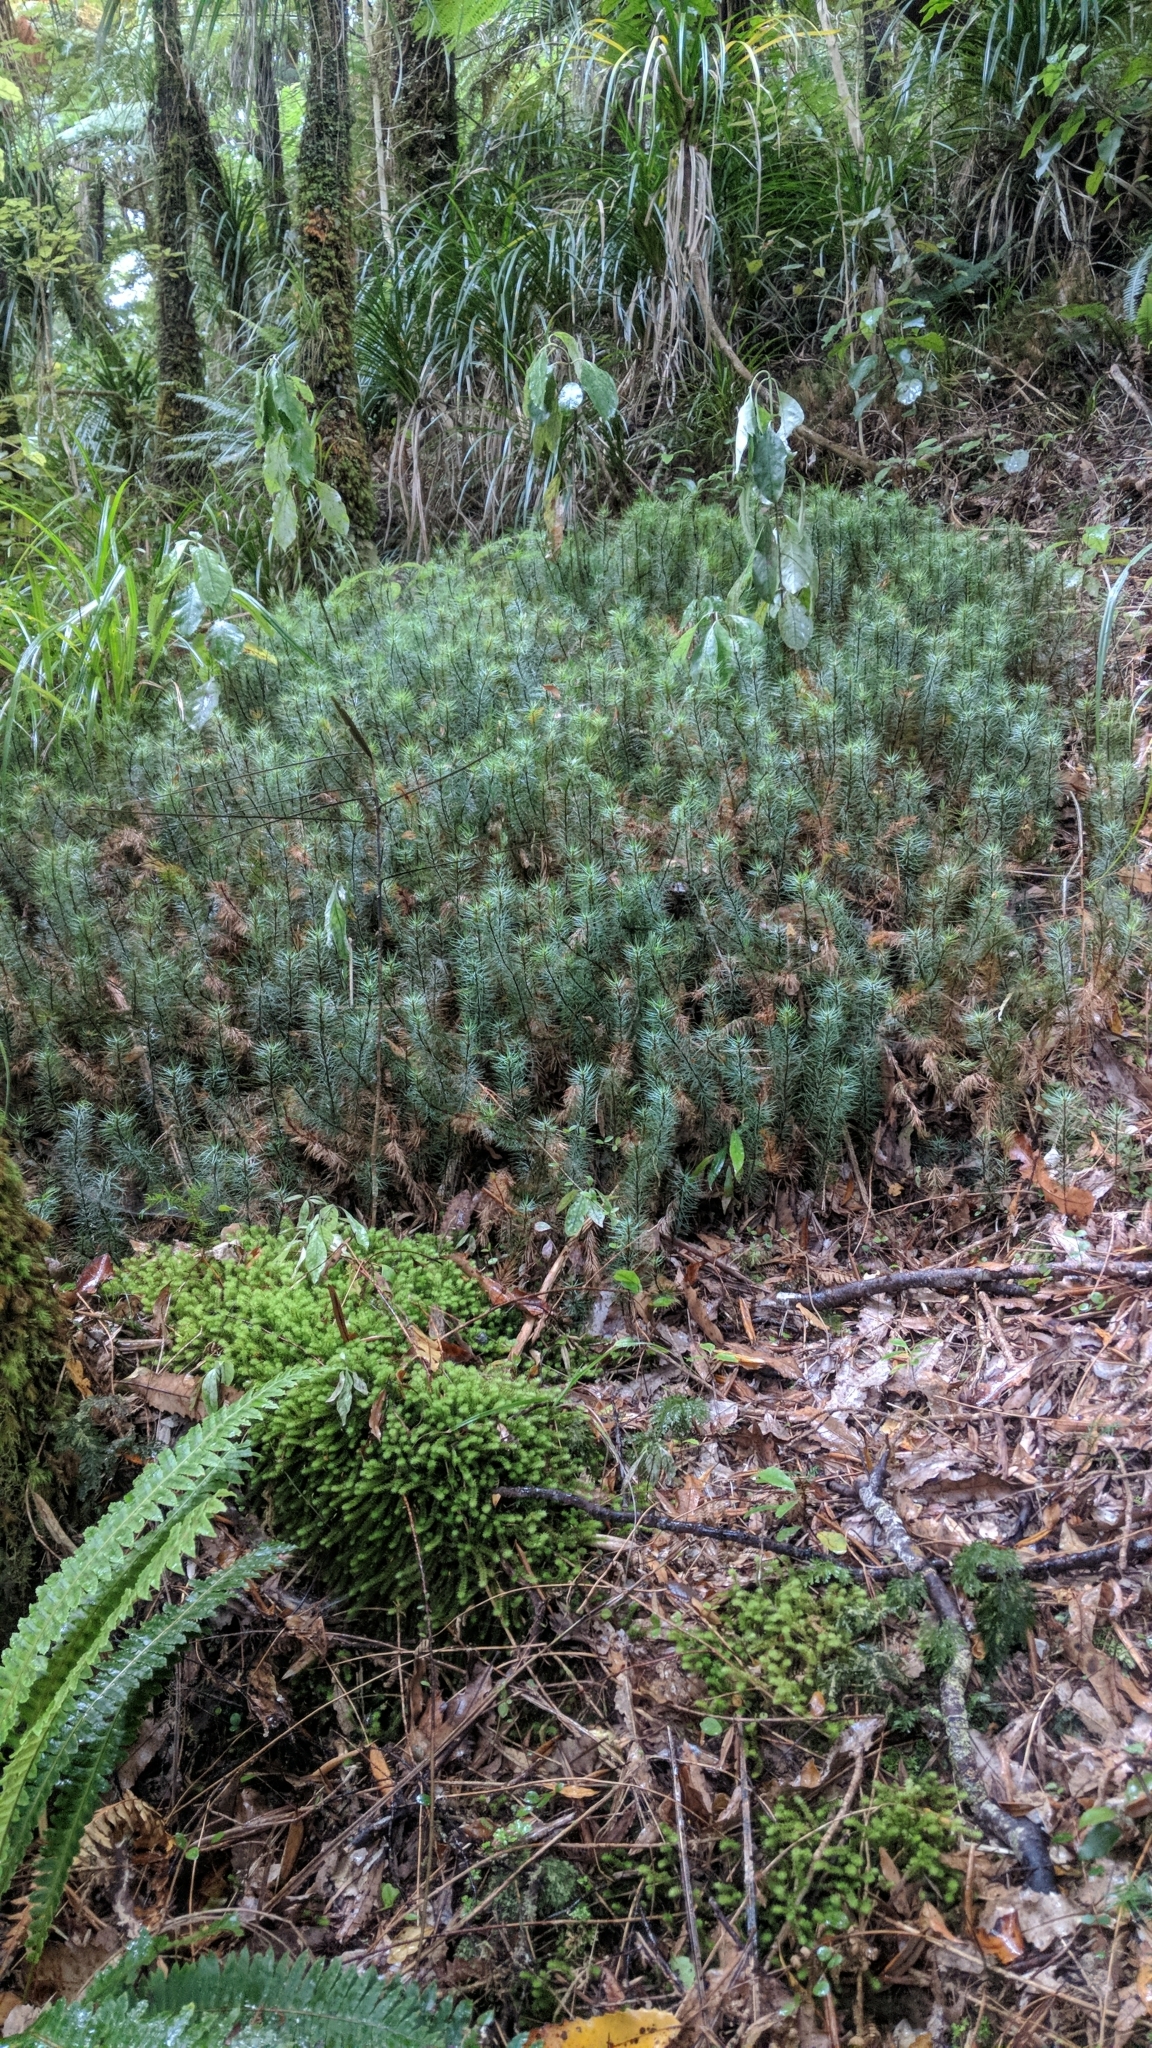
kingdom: Plantae
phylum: Bryophyta
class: Polytrichopsida
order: Polytrichales
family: Polytrichaceae
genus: Dawsonia
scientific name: Dawsonia superba
